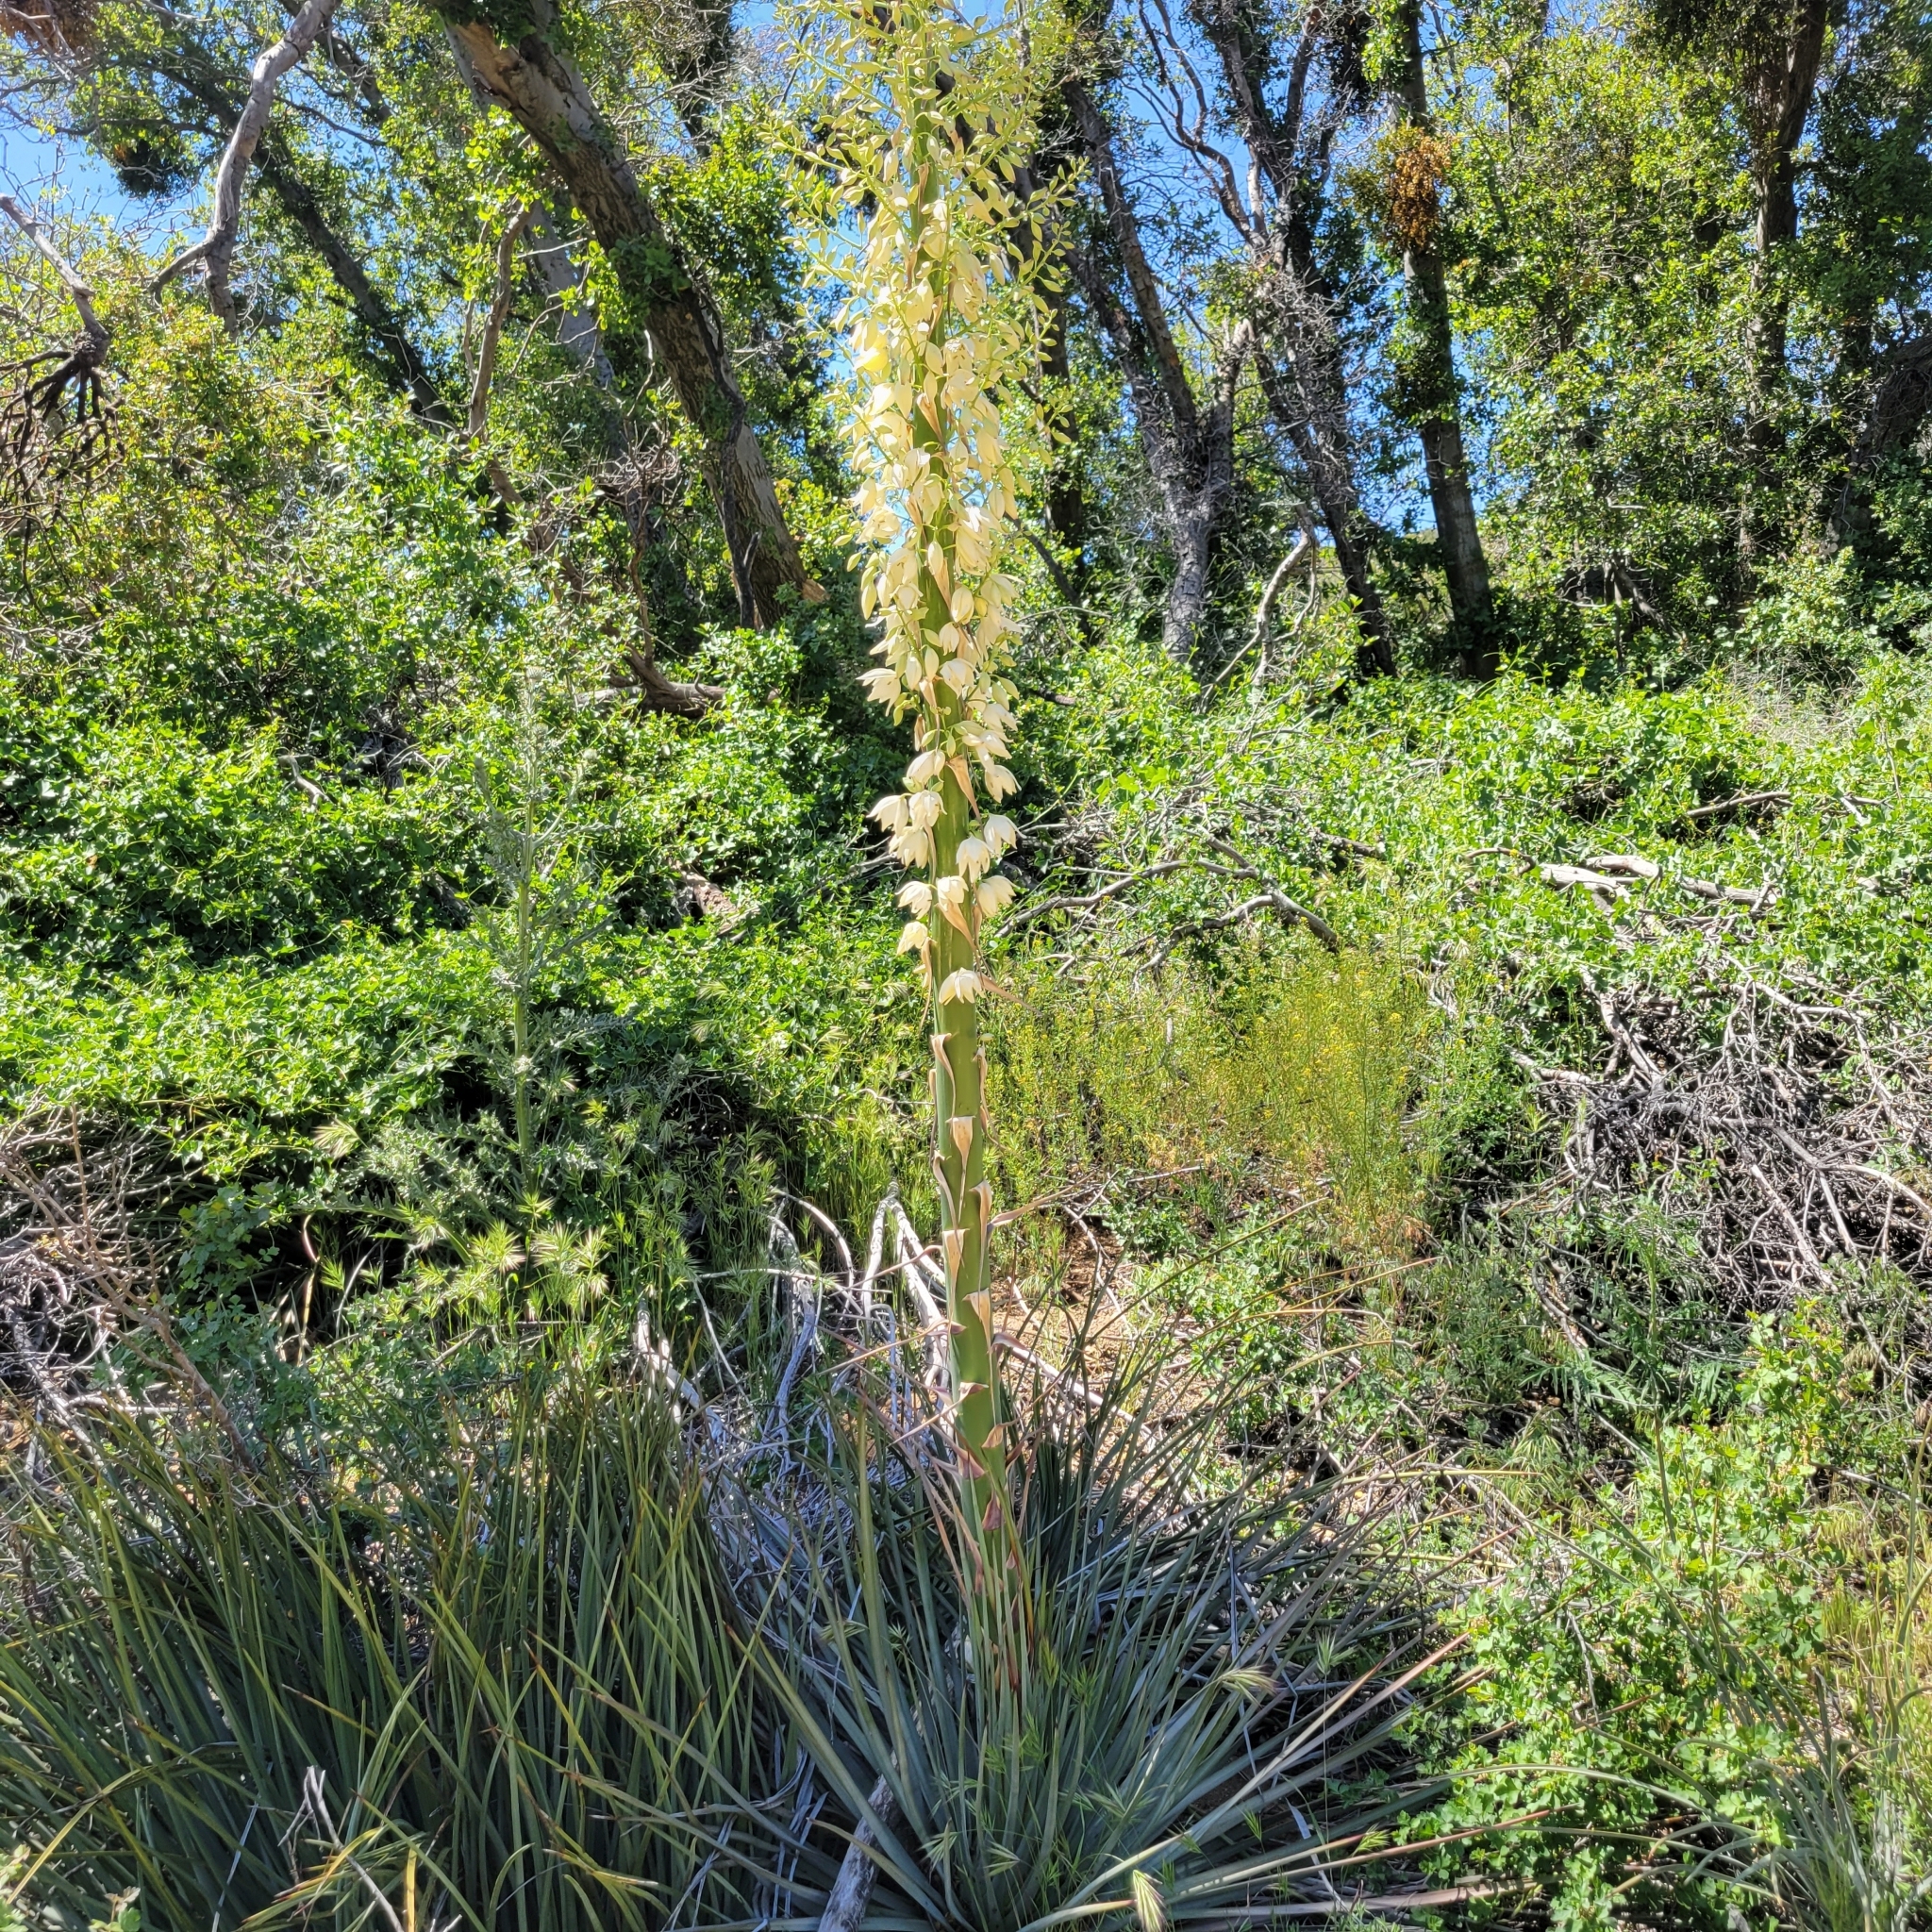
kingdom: Plantae
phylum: Tracheophyta
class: Liliopsida
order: Asparagales
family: Asparagaceae
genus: Hesperoyucca
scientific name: Hesperoyucca whipplei
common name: Our lord's-candle
